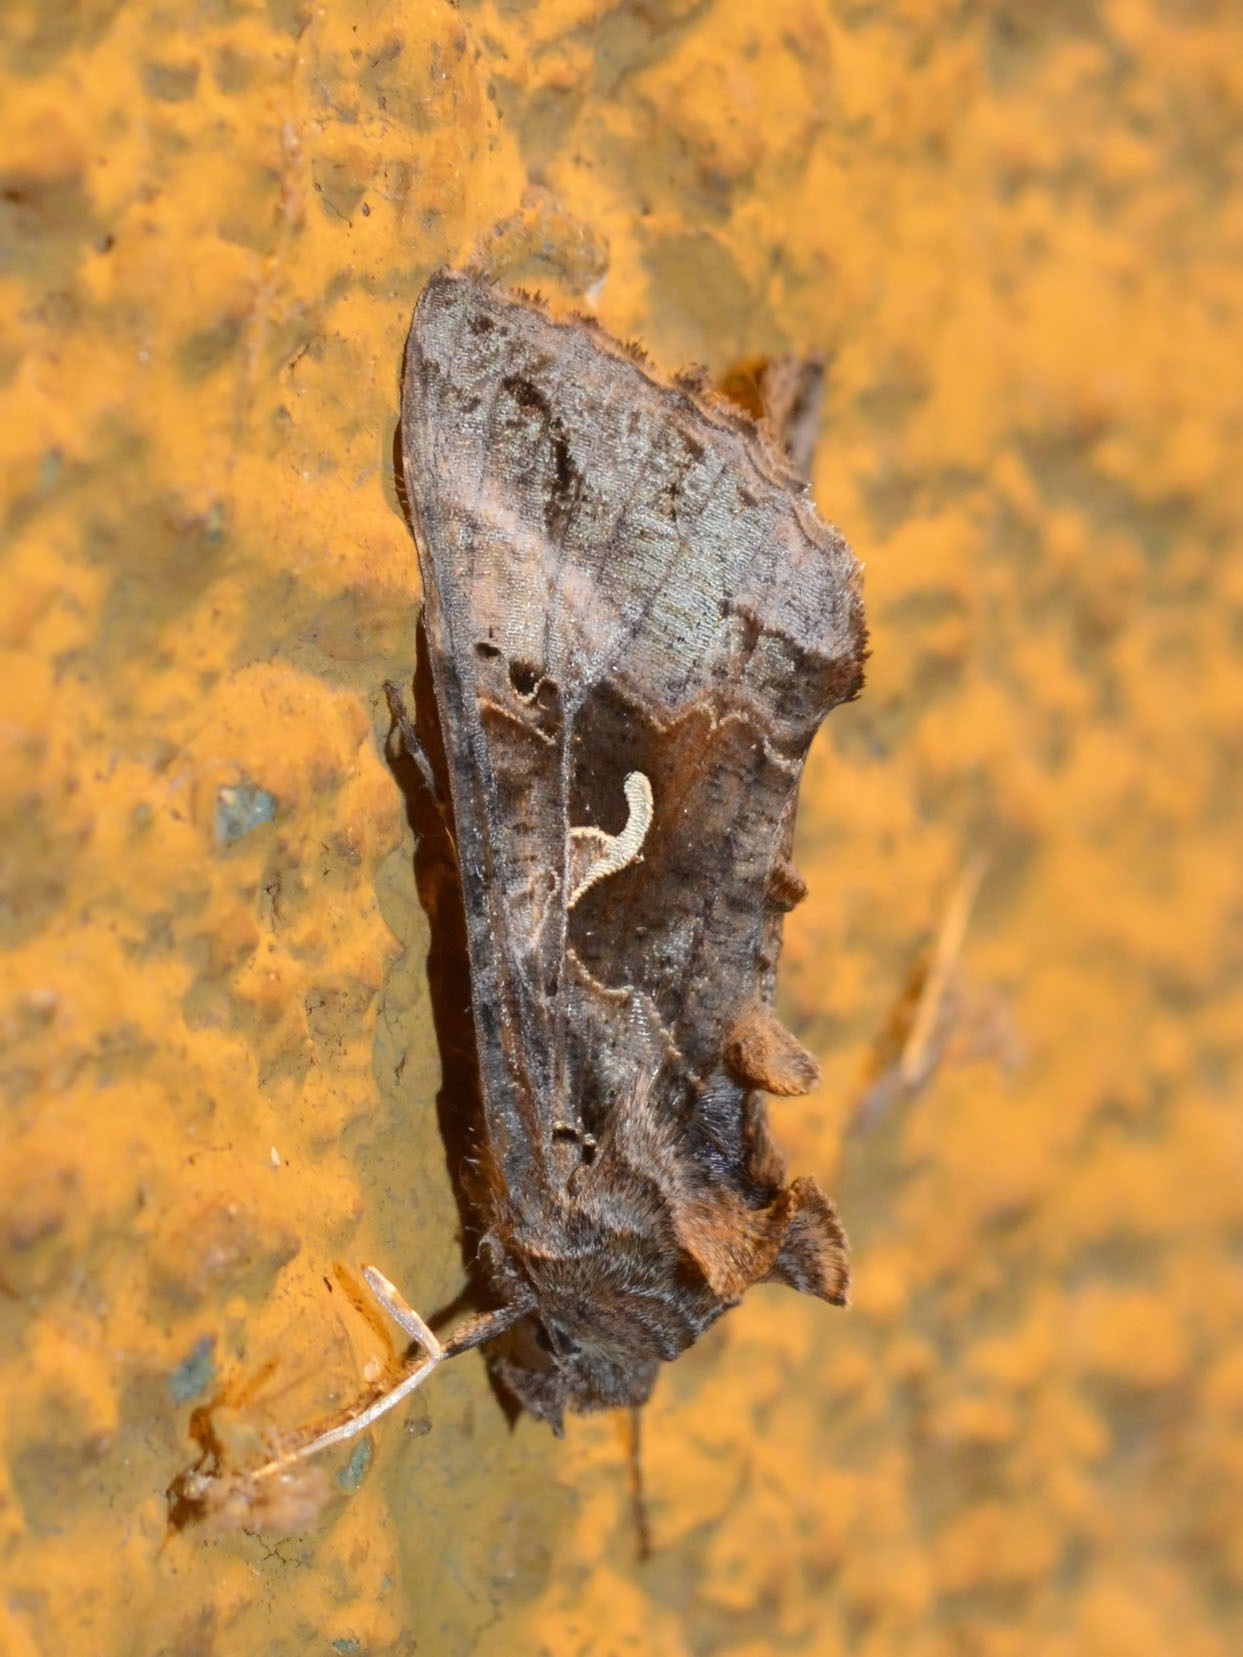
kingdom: Animalia
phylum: Arthropoda
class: Insecta
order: Lepidoptera
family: Noctuidae
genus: Autographa
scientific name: Autographa gamma
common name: Silver y
